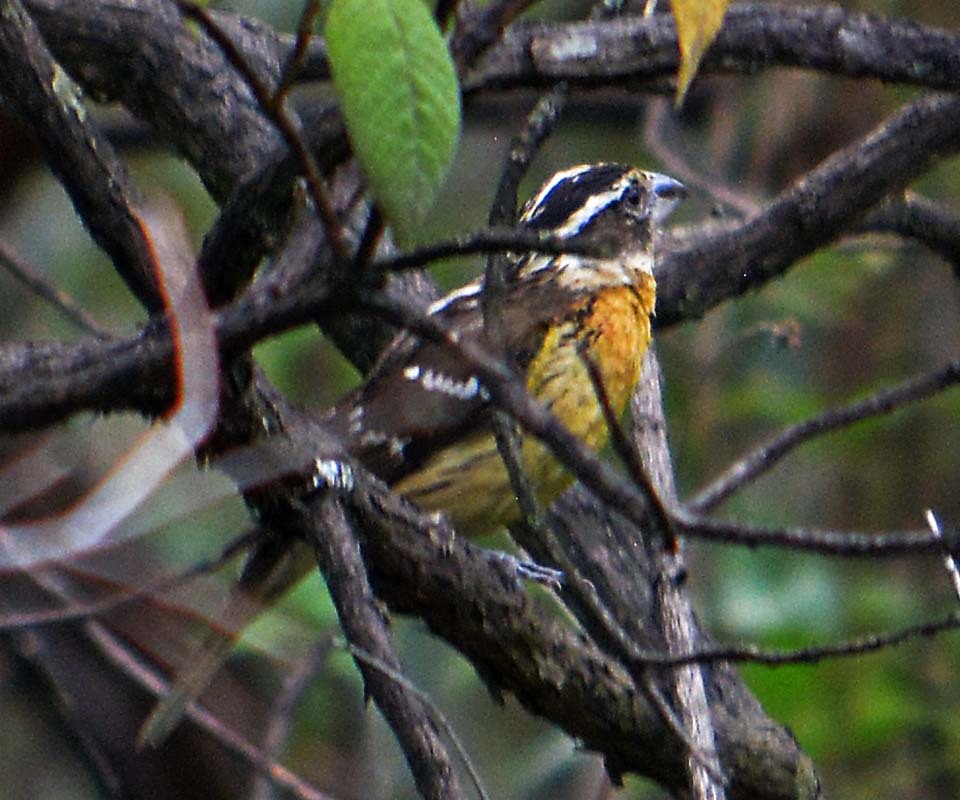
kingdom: Animalia
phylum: Chordata
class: Aves
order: Passeriformes
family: Cardinalidae
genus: Pheucticus
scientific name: Pheucticus melanocephalus
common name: Black-headed grosbeak
